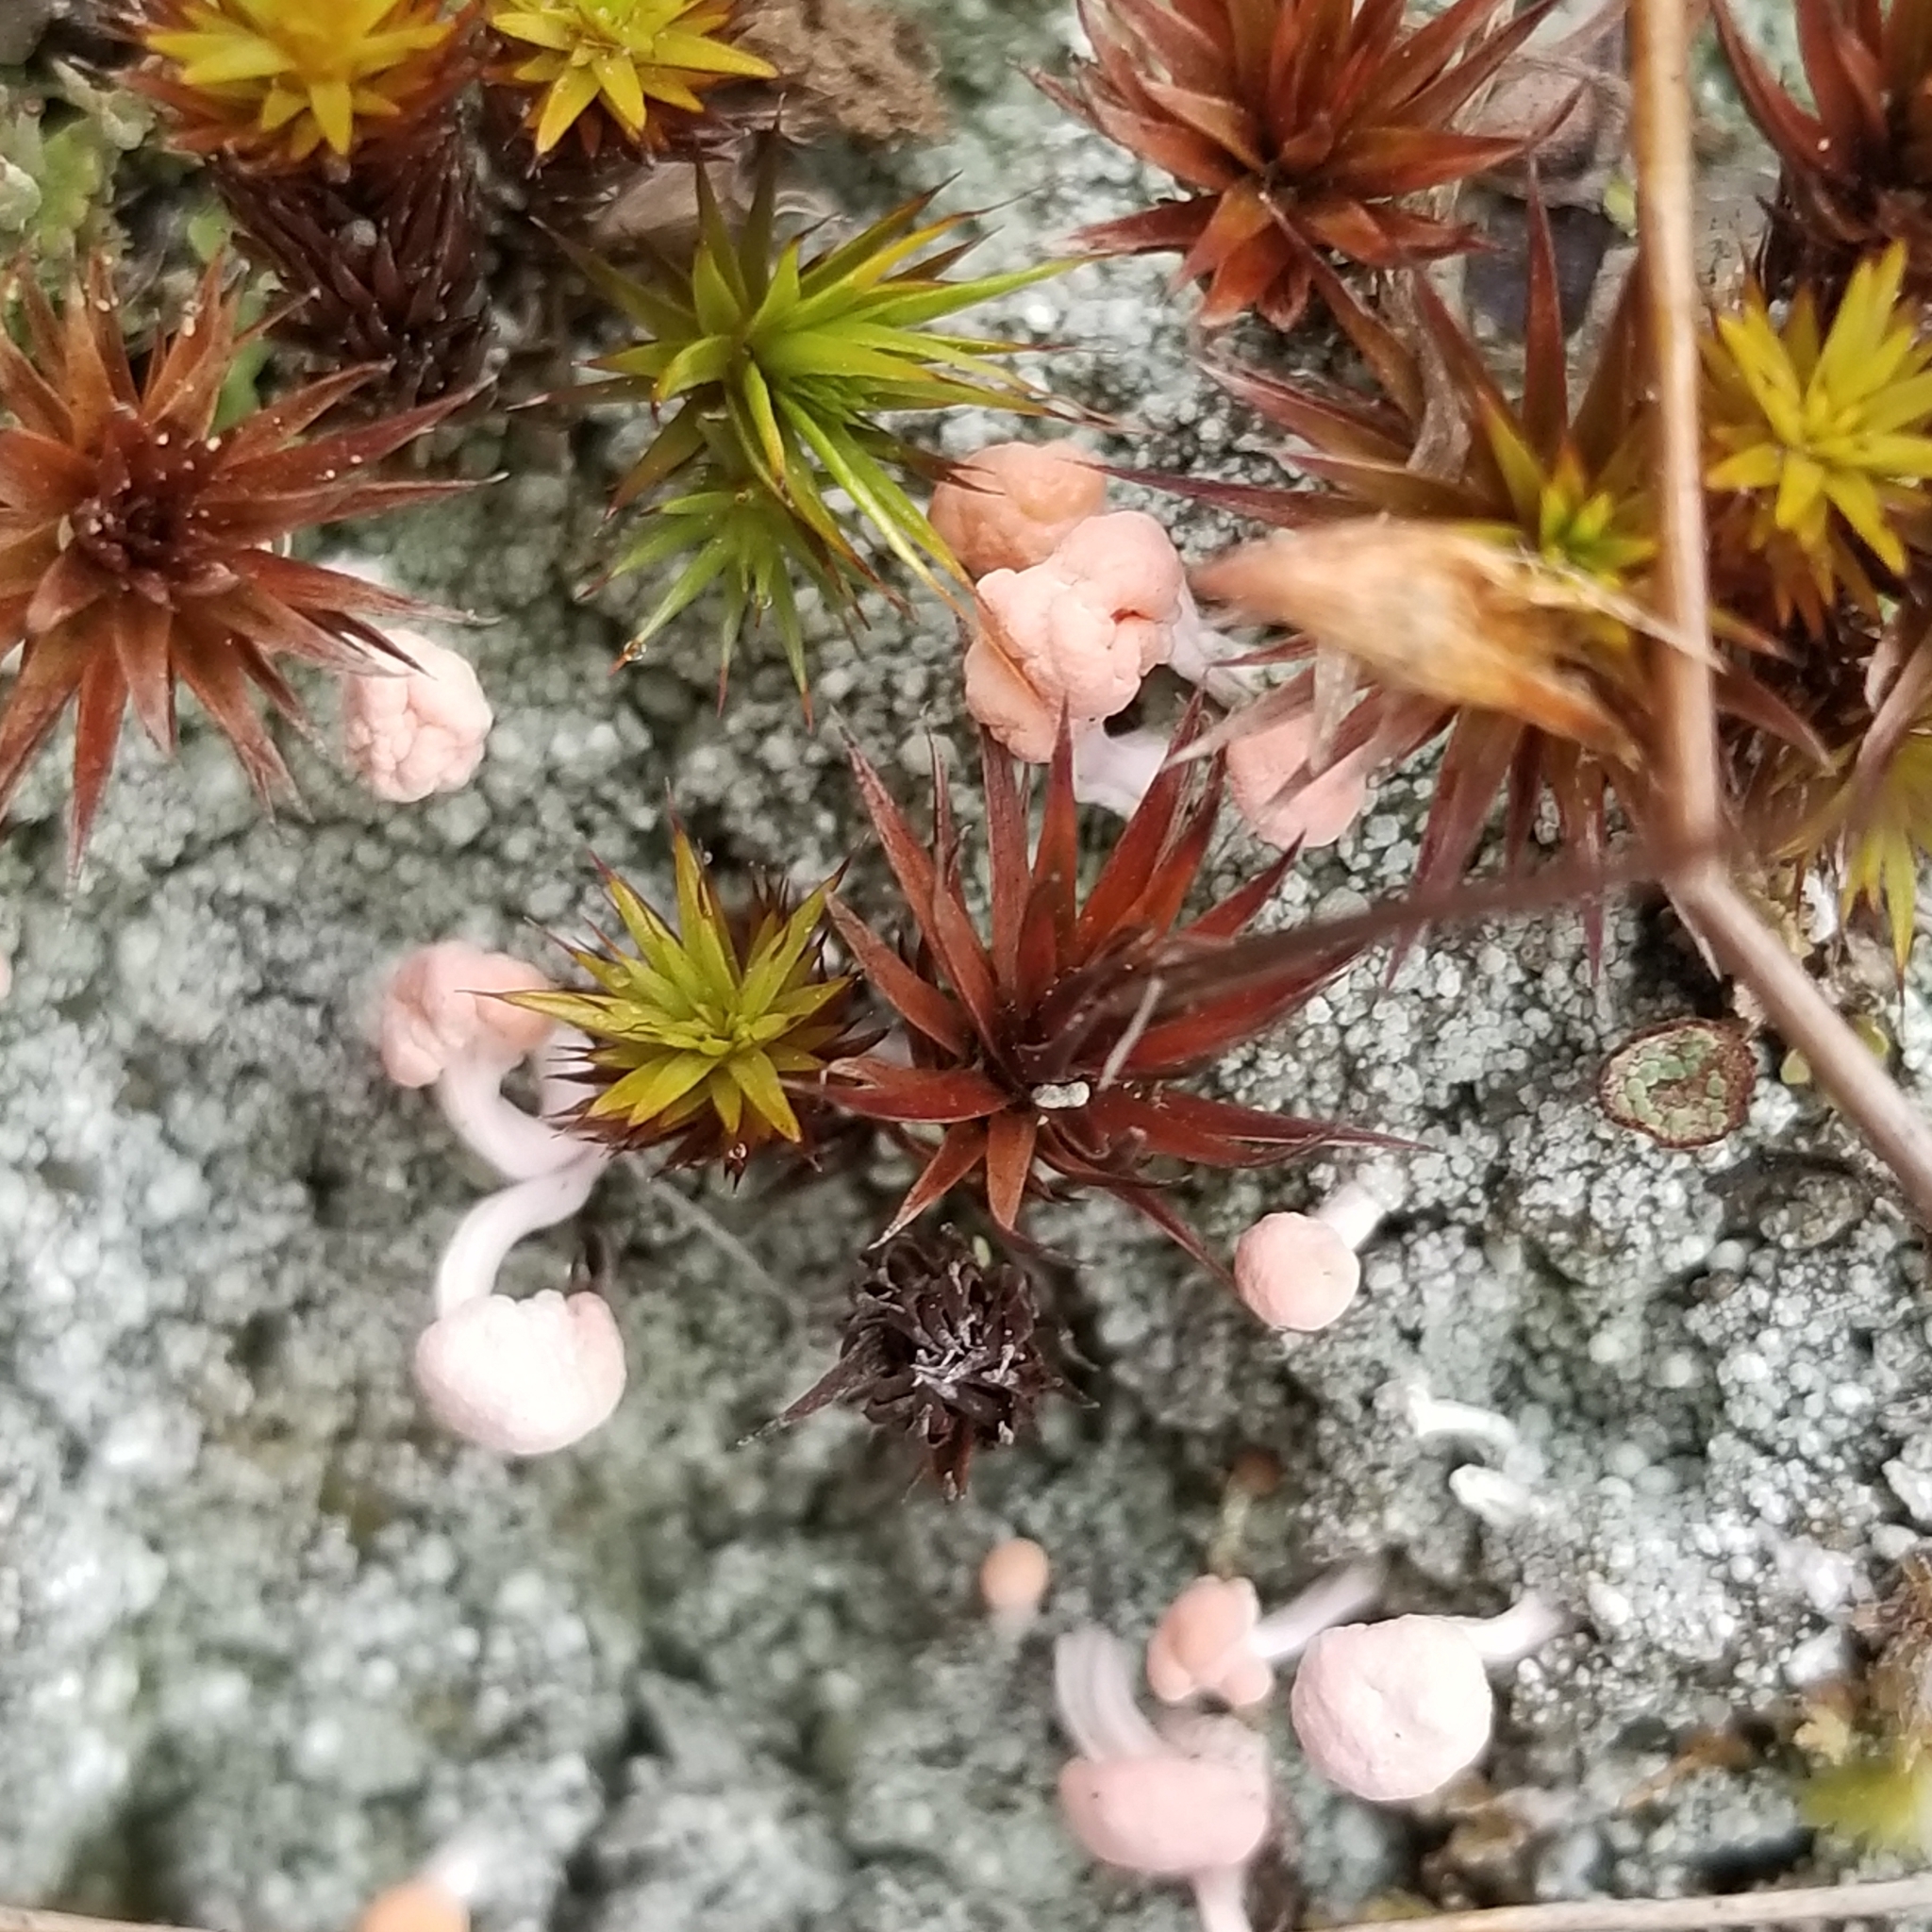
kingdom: Fungi
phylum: Ascomycota
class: Lecanoromycetes
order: Pertusariales
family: Icmadophilaceae
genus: Dibaeis
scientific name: Dibaeis baeomyces
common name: Pink earth lichen
